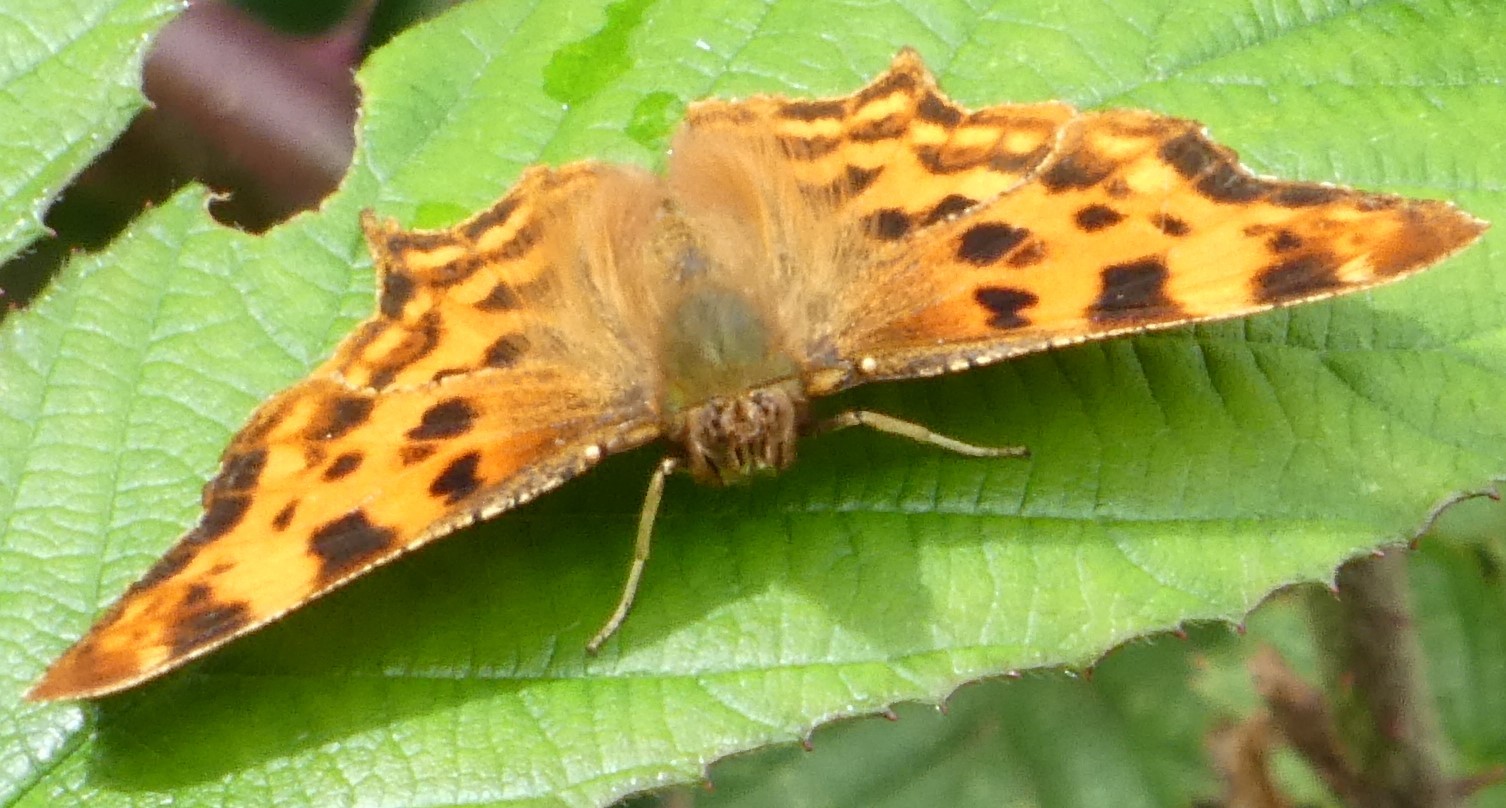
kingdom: Animalia
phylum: Arthropoda
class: Insecta
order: Lepidoptera
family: Nymphalidae
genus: Polygonia
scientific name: Polygonia c-album
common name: Comma
